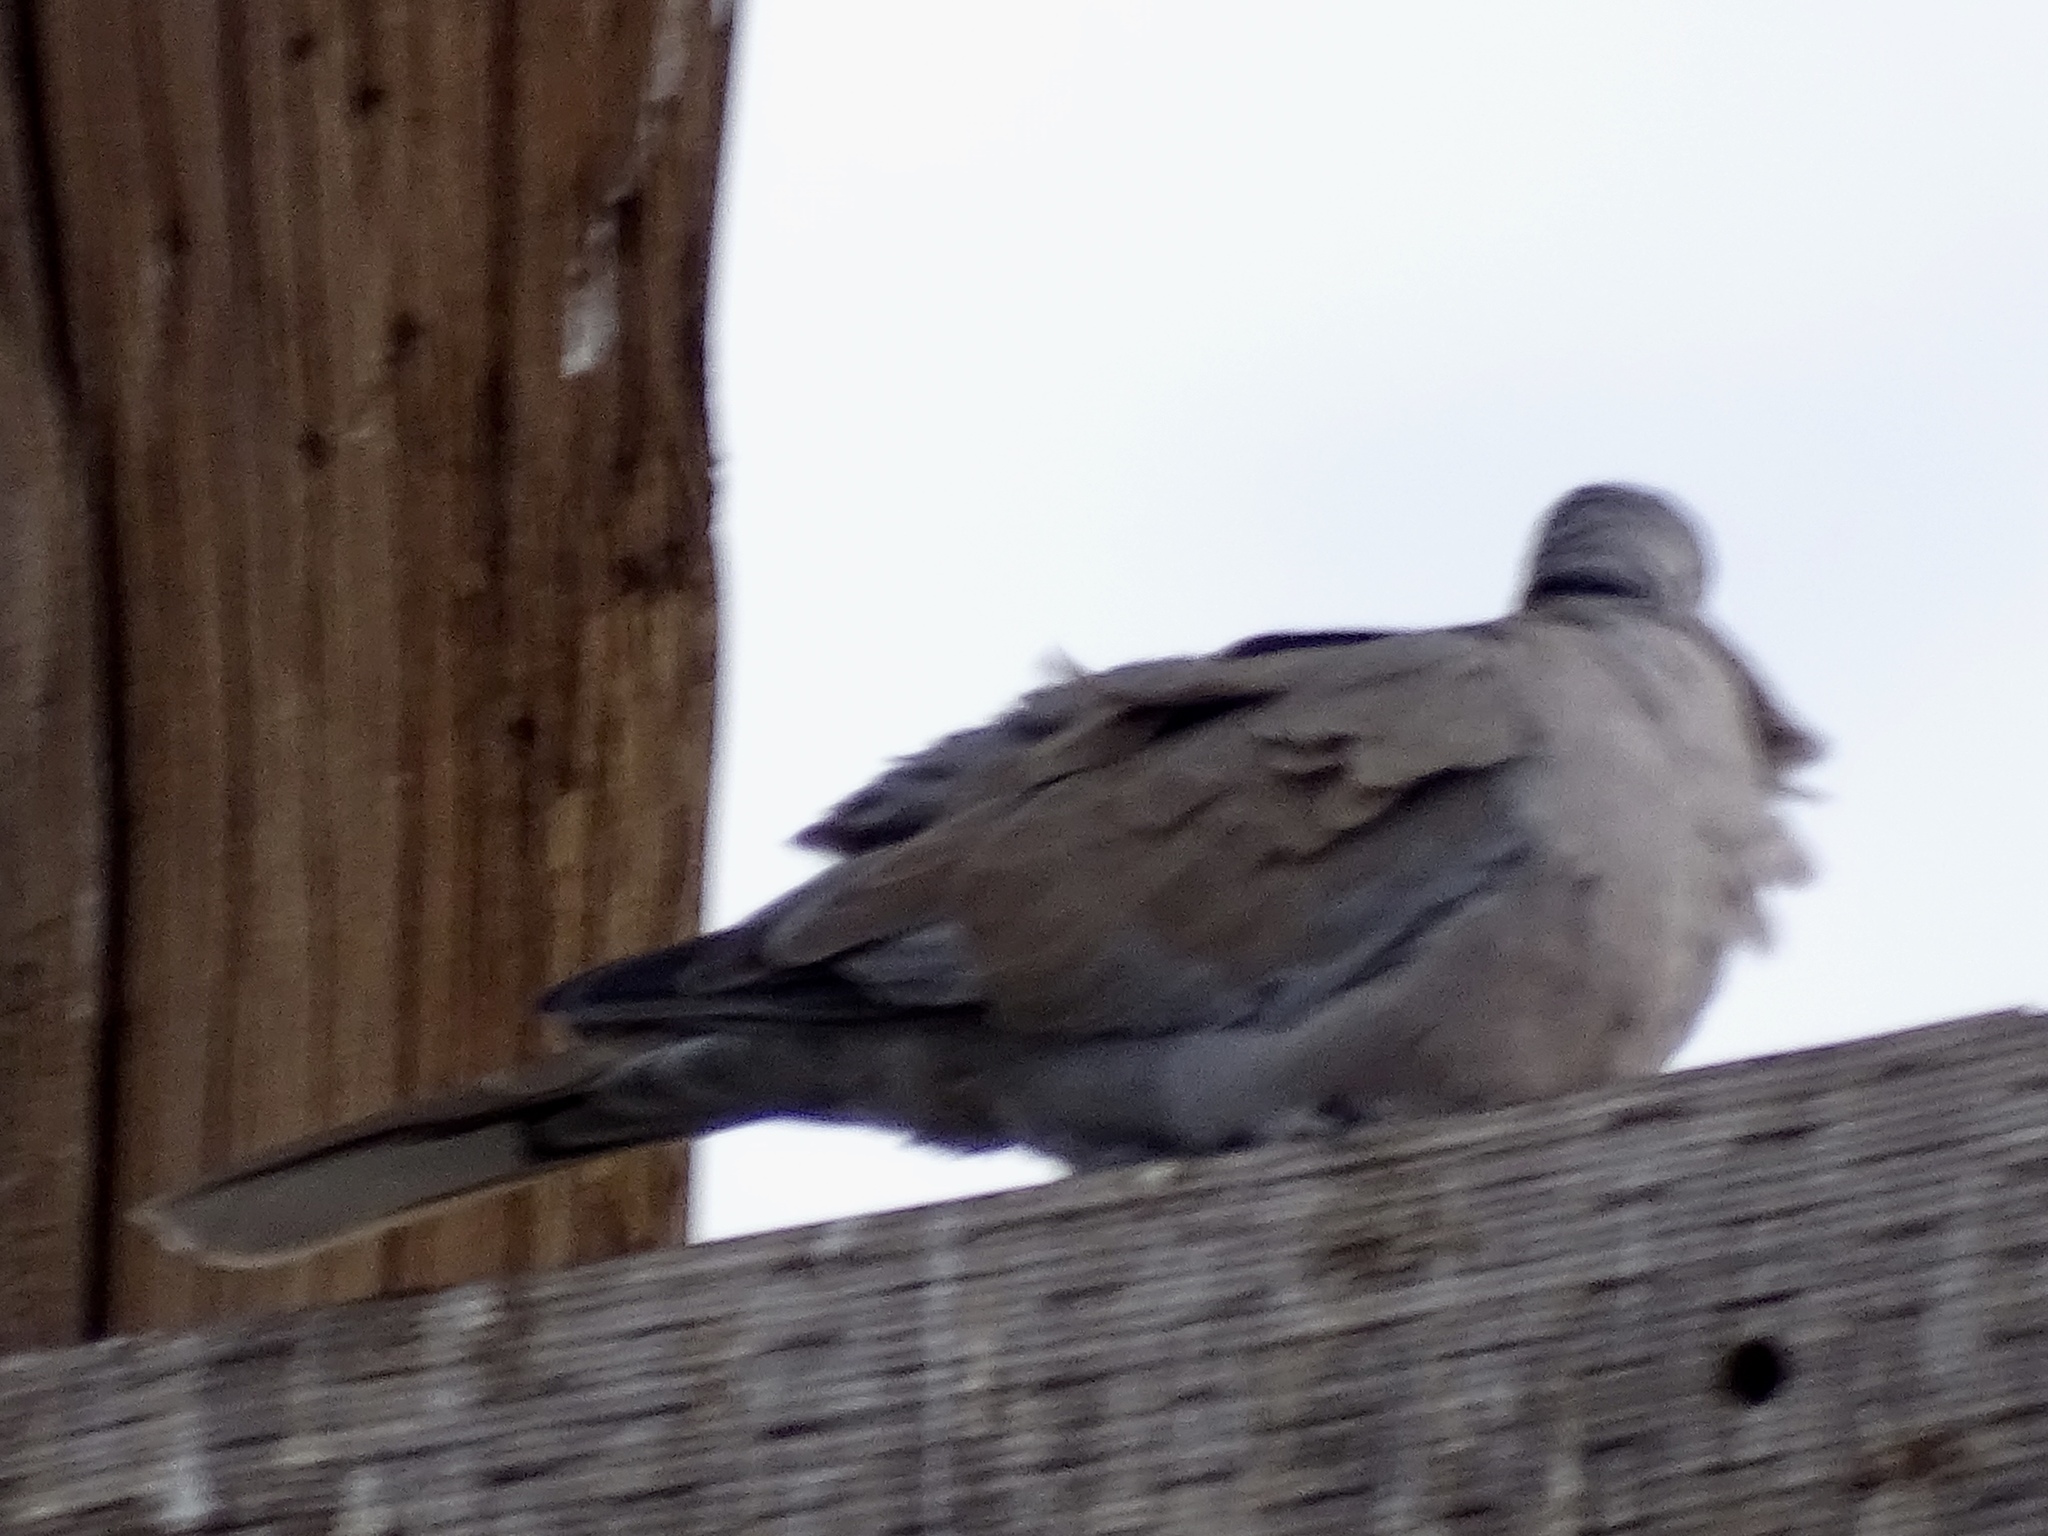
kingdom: Animalia
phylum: Chordata
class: Aves
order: Columbiformes
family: Columbidae
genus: Streptopelia
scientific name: Streptopelia decaocto
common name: Eurasian collared dove
